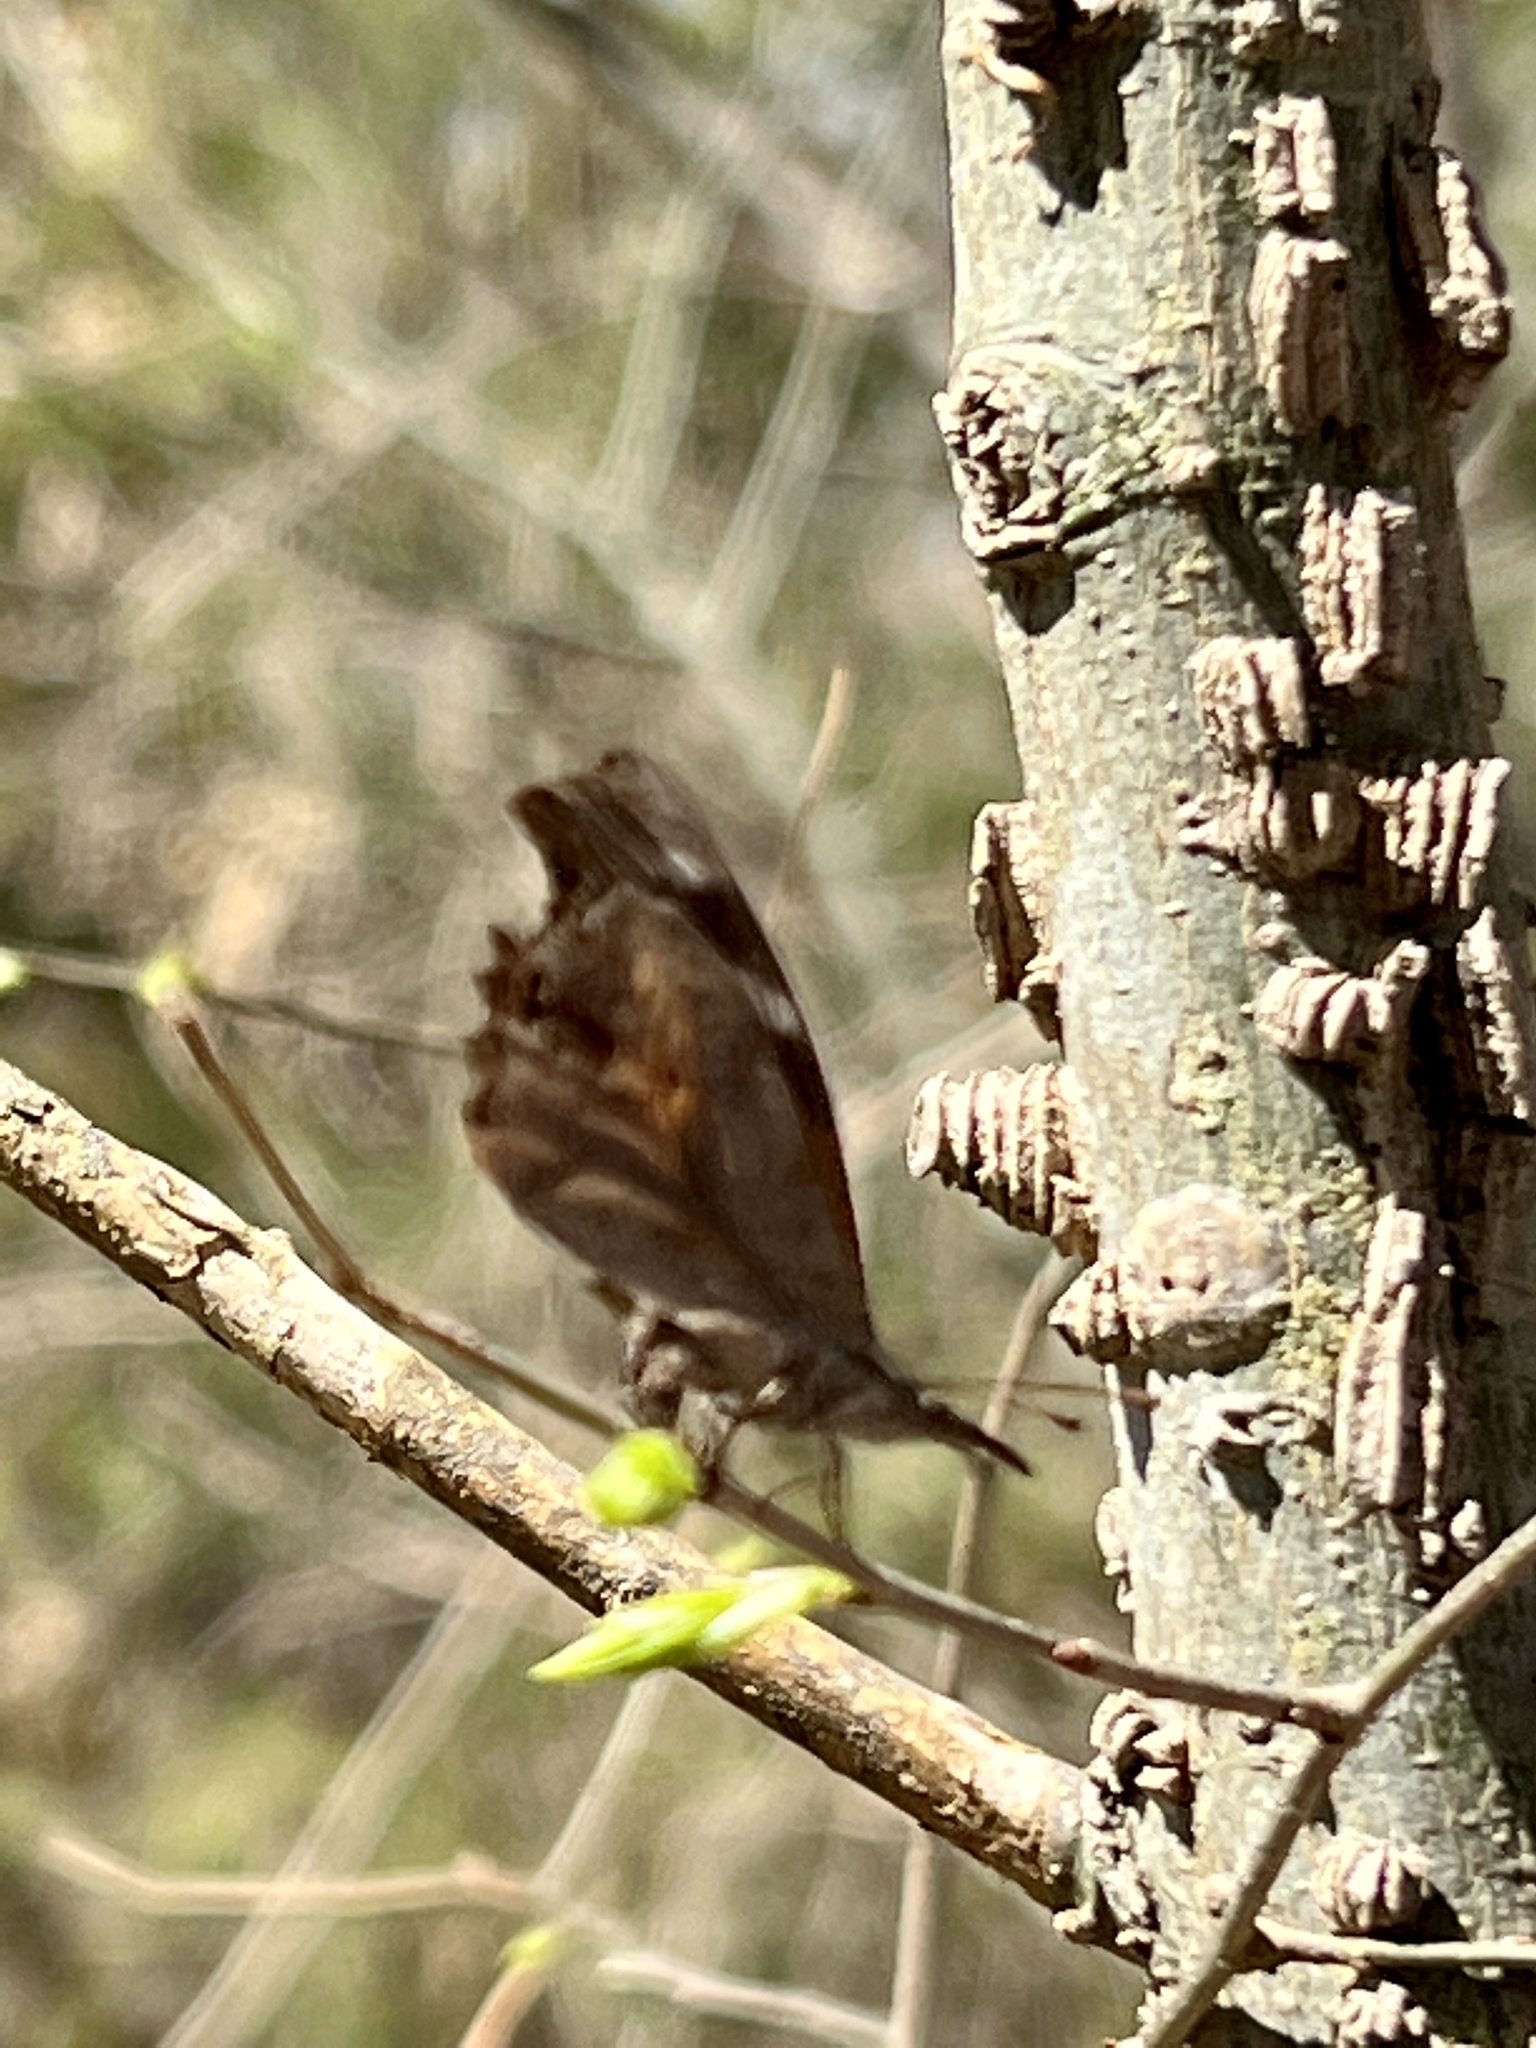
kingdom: Animalia
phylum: Arthropoda
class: Insecta
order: Lepidoptera
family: Nymphalidae
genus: Libytheana
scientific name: Libytheana carinenta
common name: American snout
